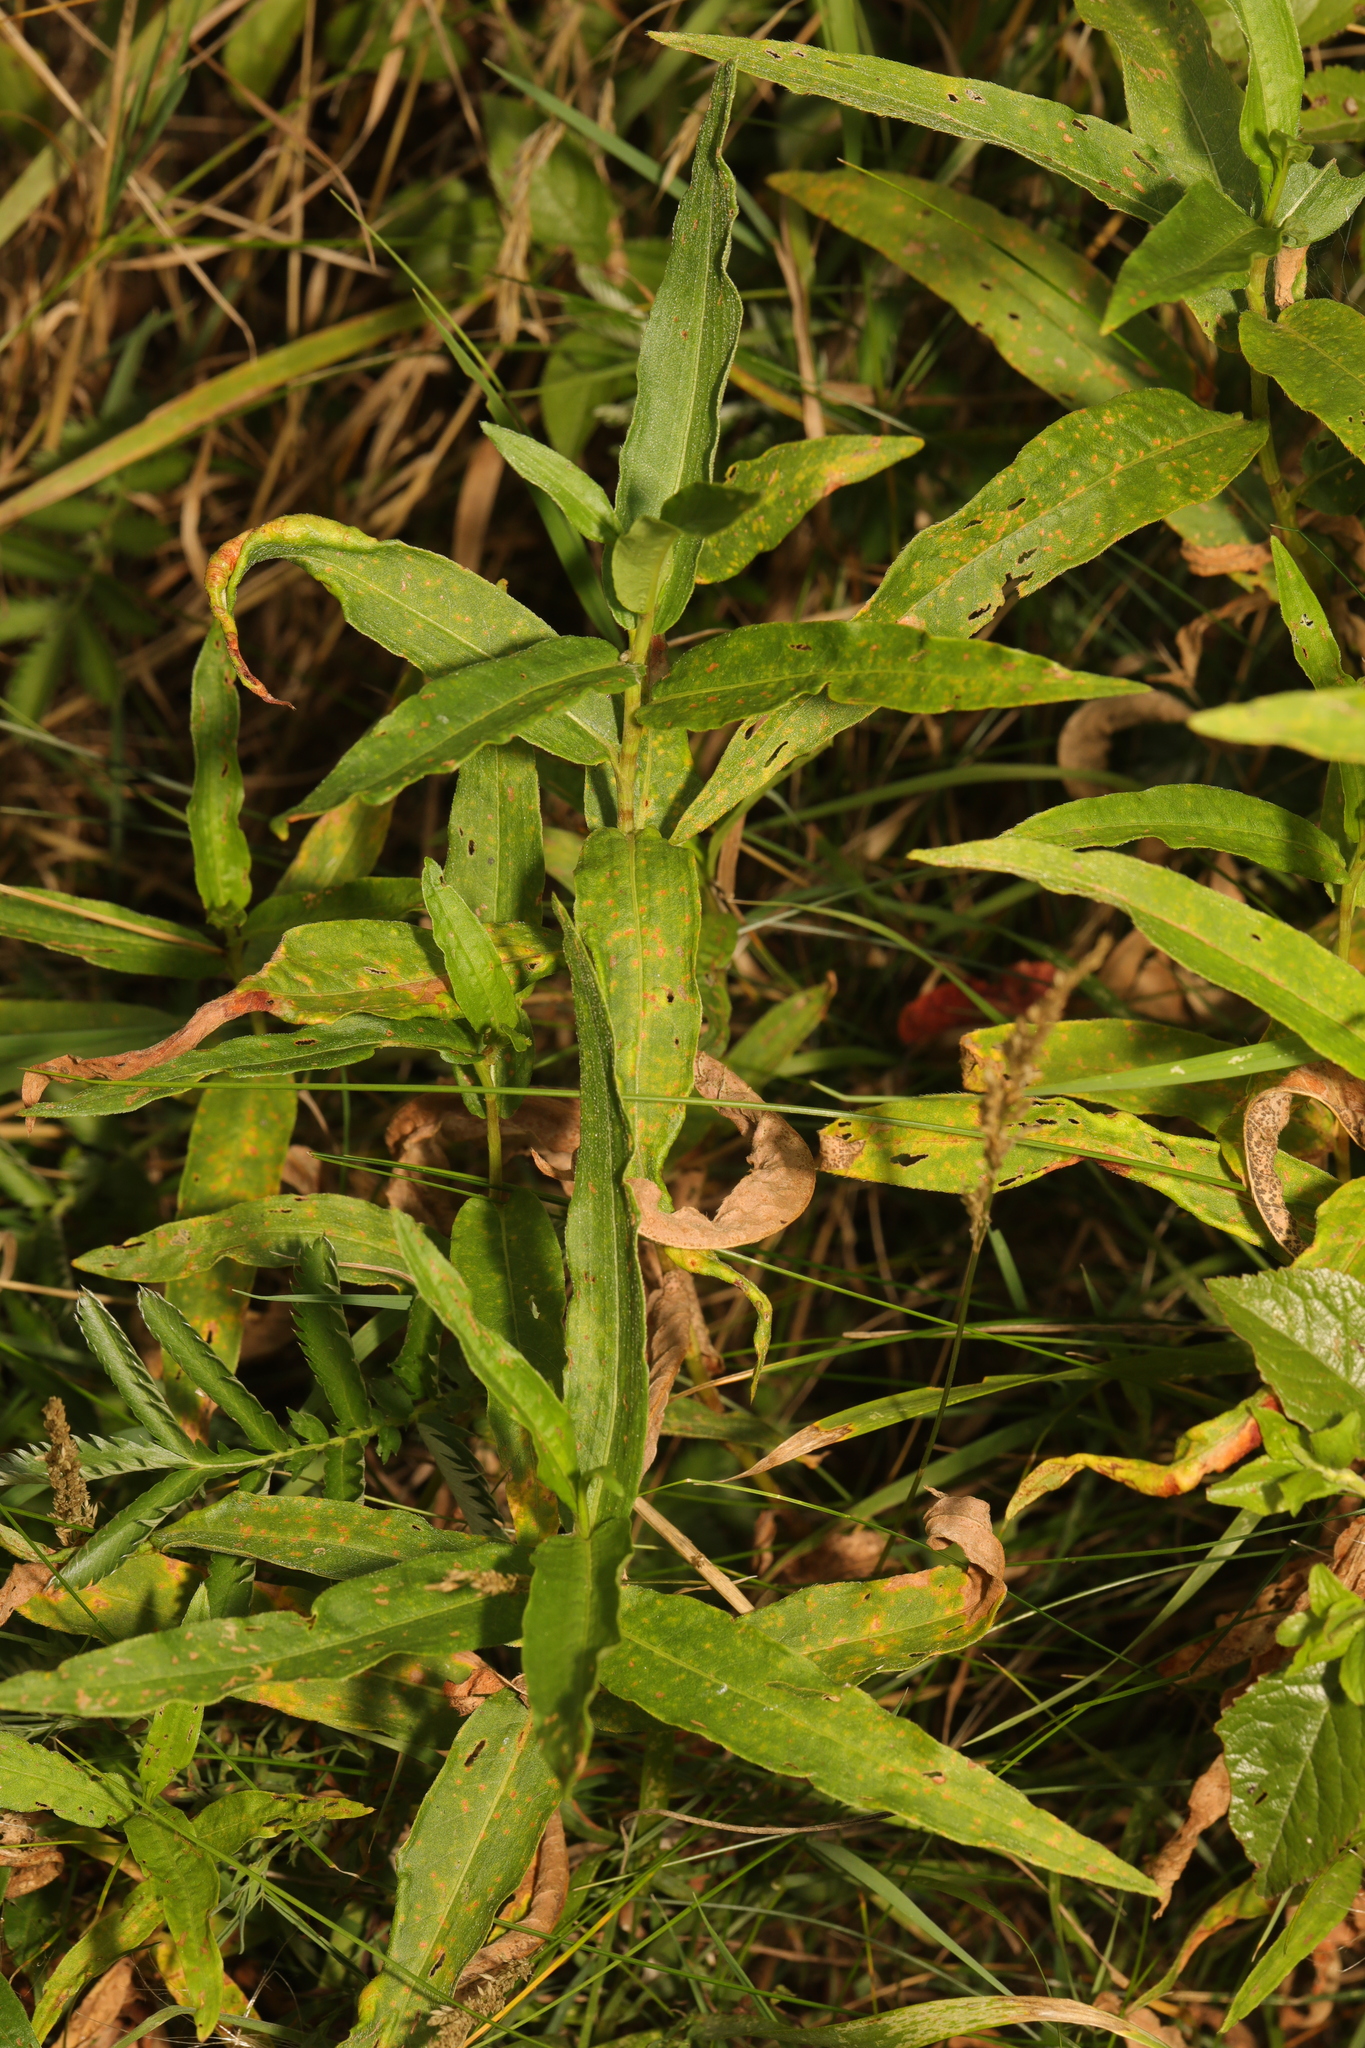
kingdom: Plantae
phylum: Tracheophyta
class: Magnoliopsida
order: Caryophyllales
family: Polygonaceae
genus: Persicaria
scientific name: Persicaria amphibia
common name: Amphibious bistort
